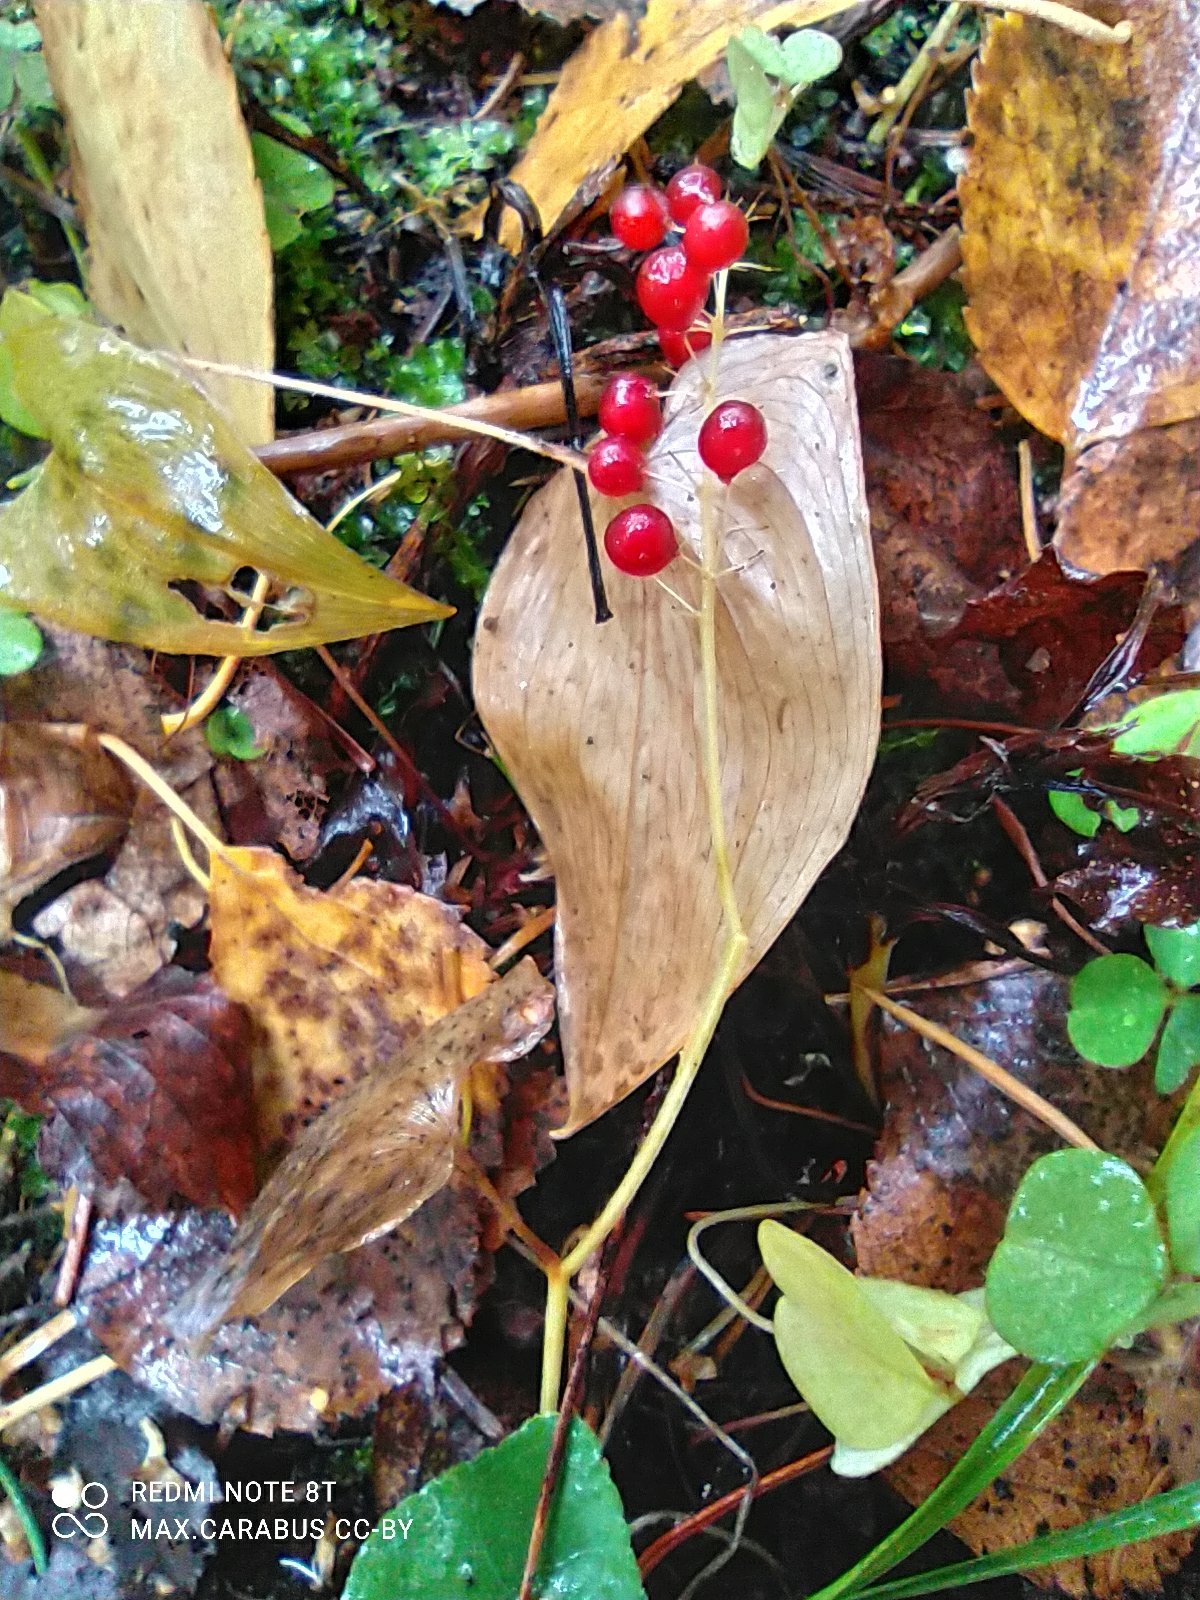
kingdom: Plantae
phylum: Tracheophyta
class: Liliopsida
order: Asparagales
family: Asparagaceae
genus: Maianthemum
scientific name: Maianthemum bifolium
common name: May lily
